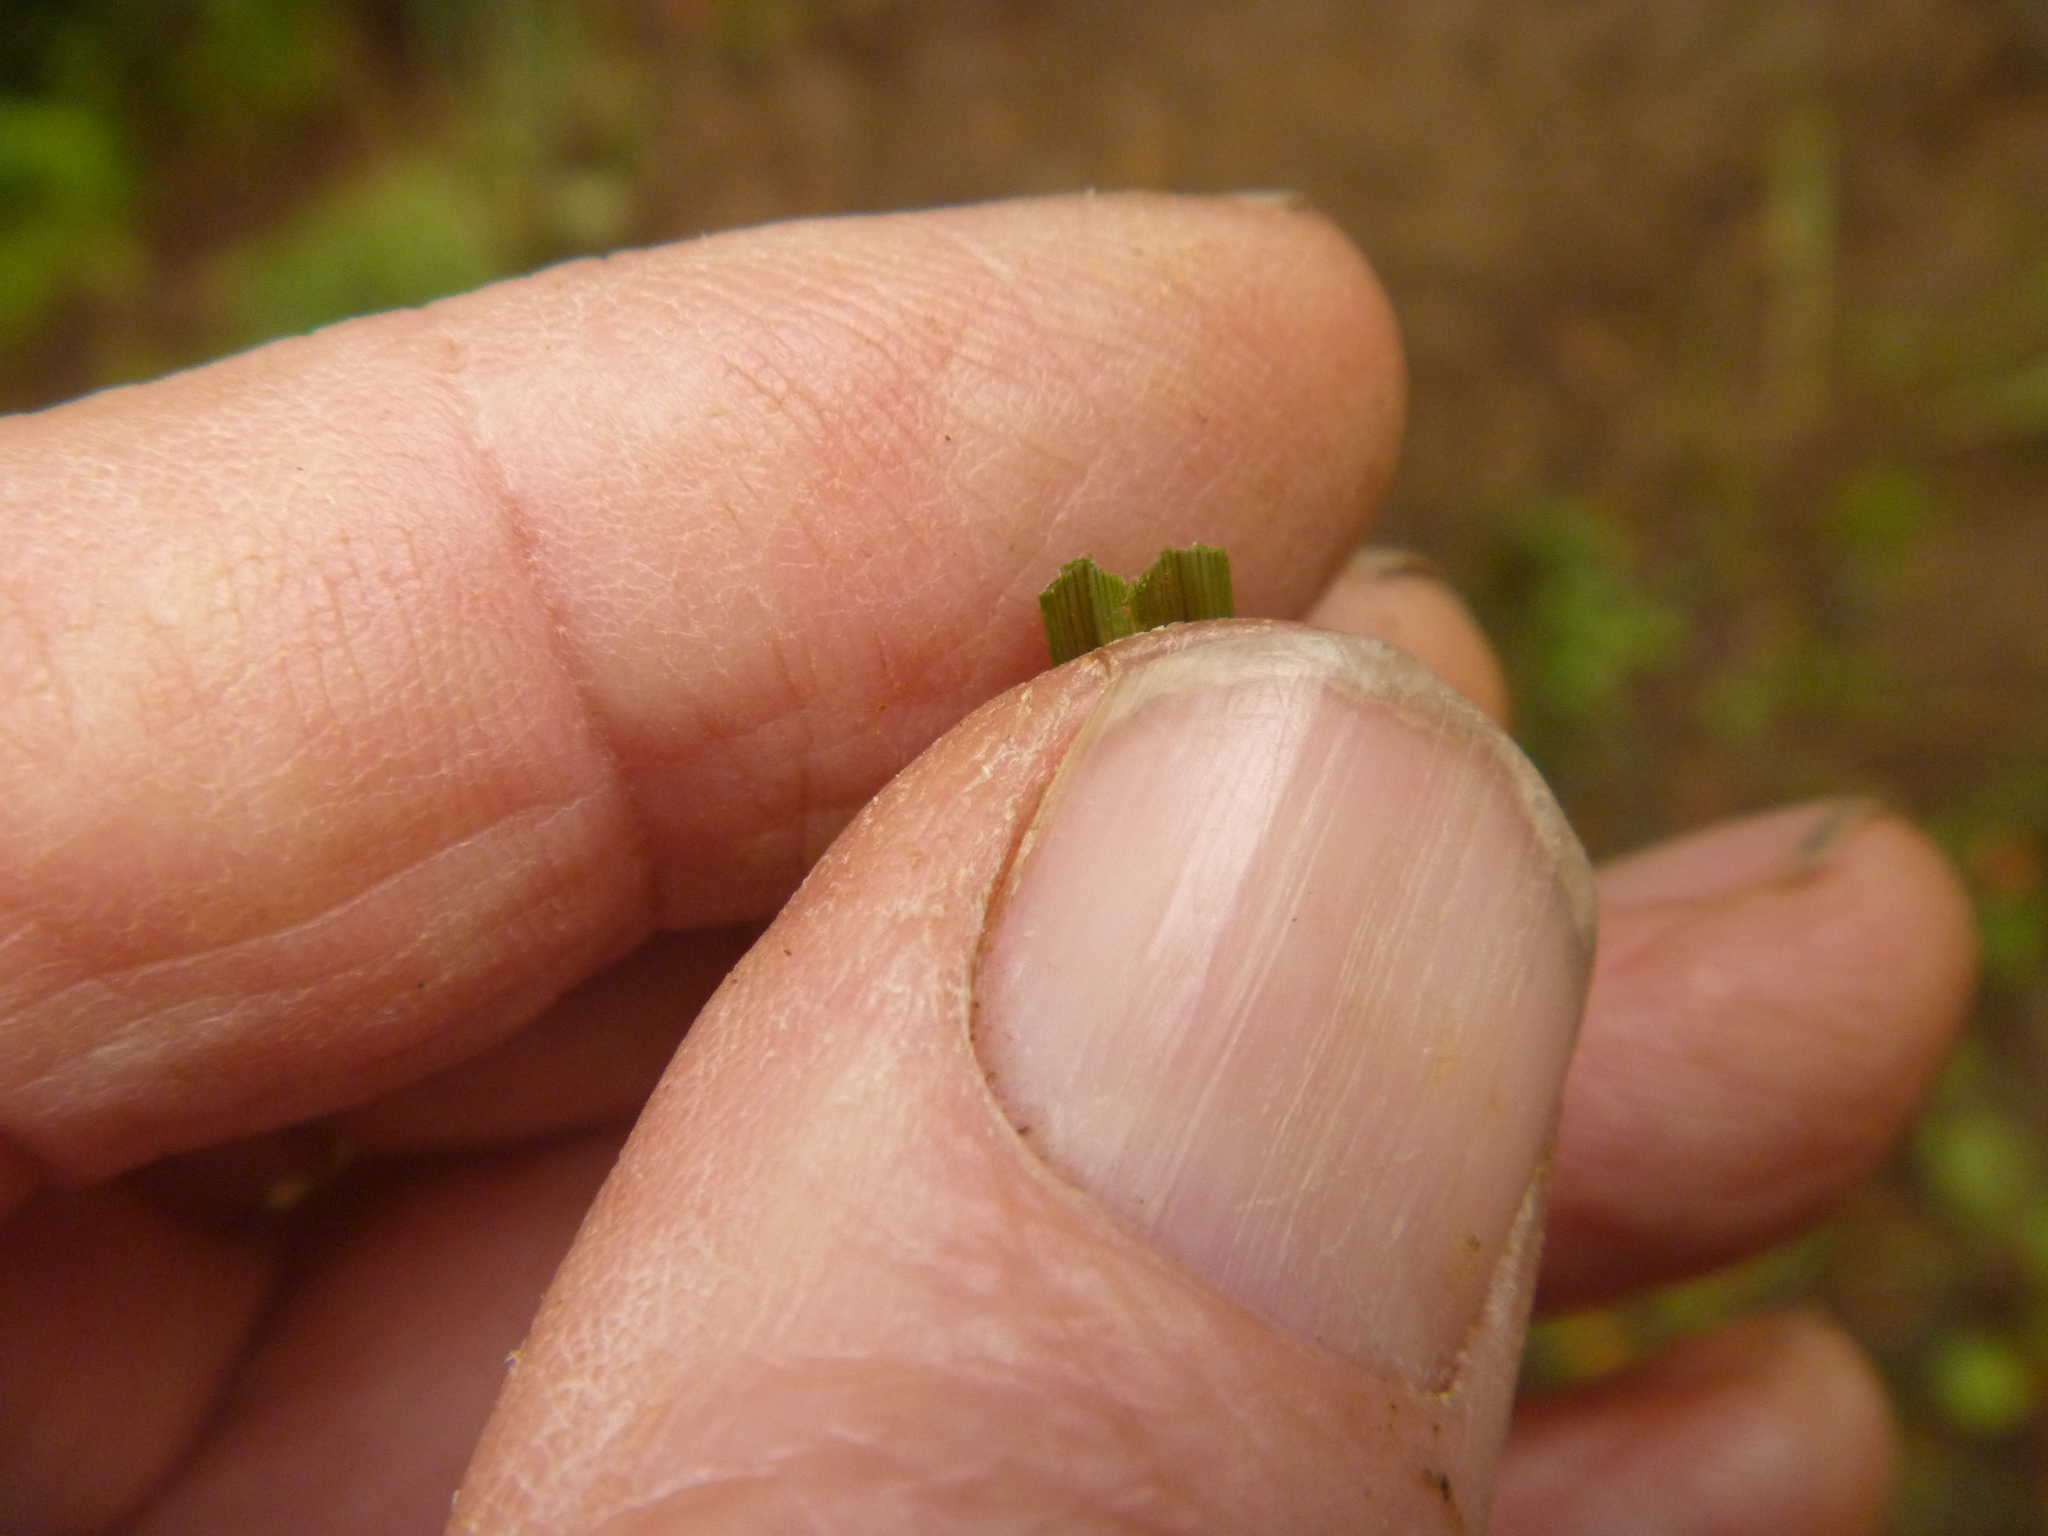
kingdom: Plantae
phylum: Tracheophyta
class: Liliopsida
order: Poales
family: Cyperaceae
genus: Cyperus
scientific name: Cyperus eragrostis
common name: Tall flatsedge
